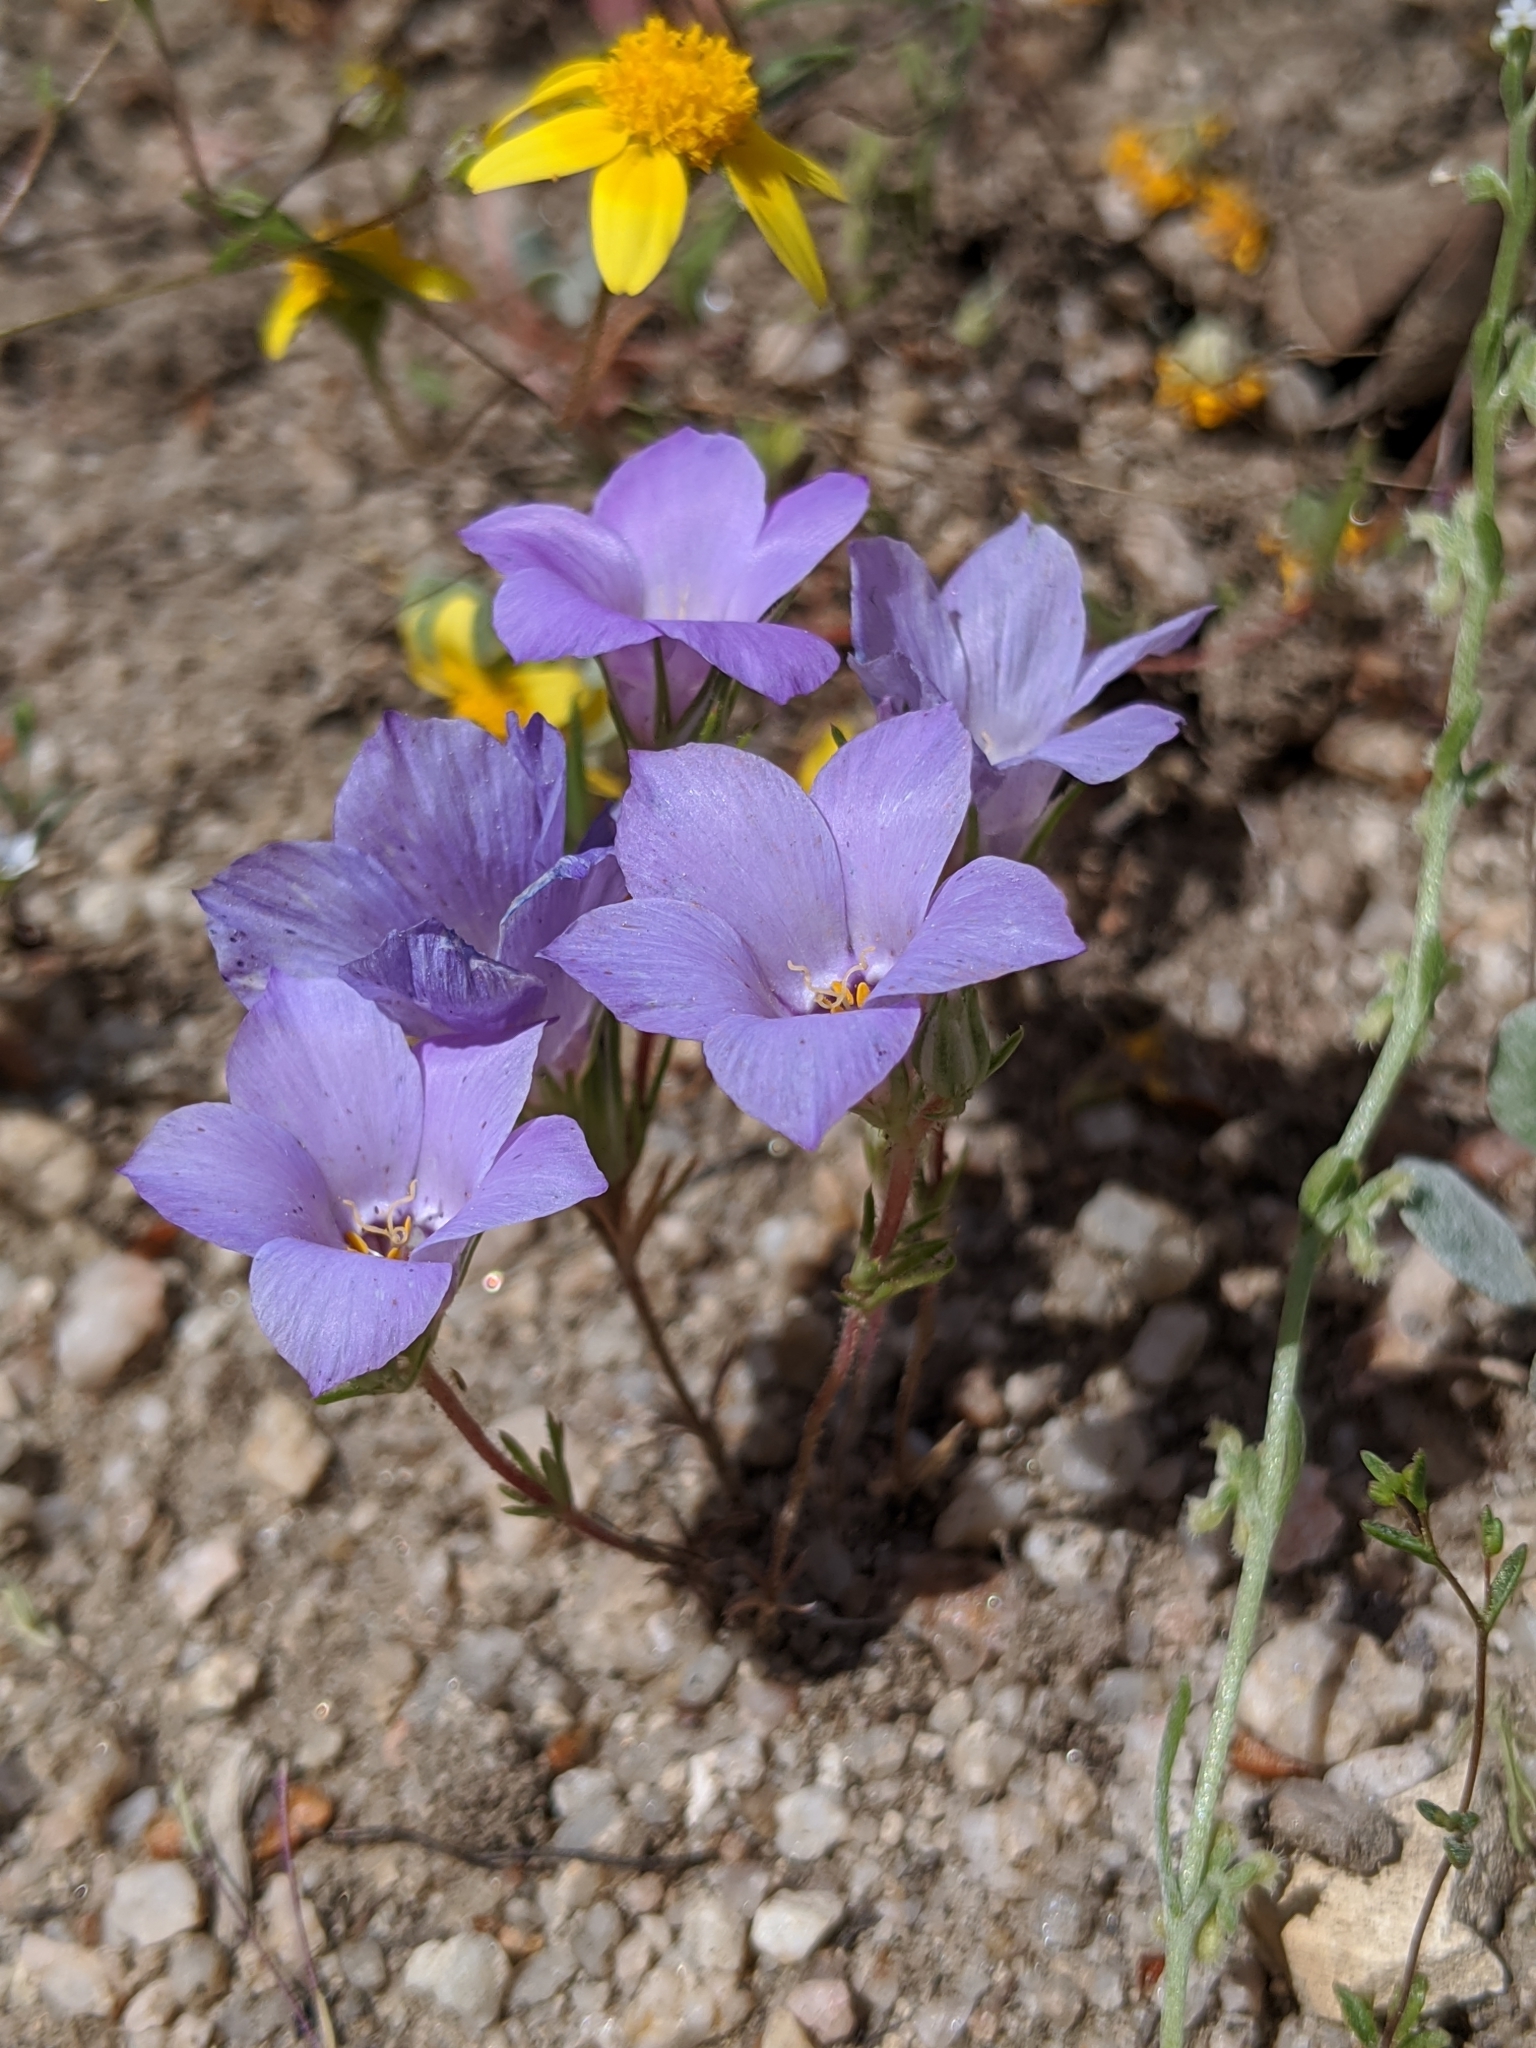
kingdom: Plantae
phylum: Tracheophyta
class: Magnoliopsida
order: Ericales
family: Polemoniaceae
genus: Linanthus
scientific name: Linanthus parryae
